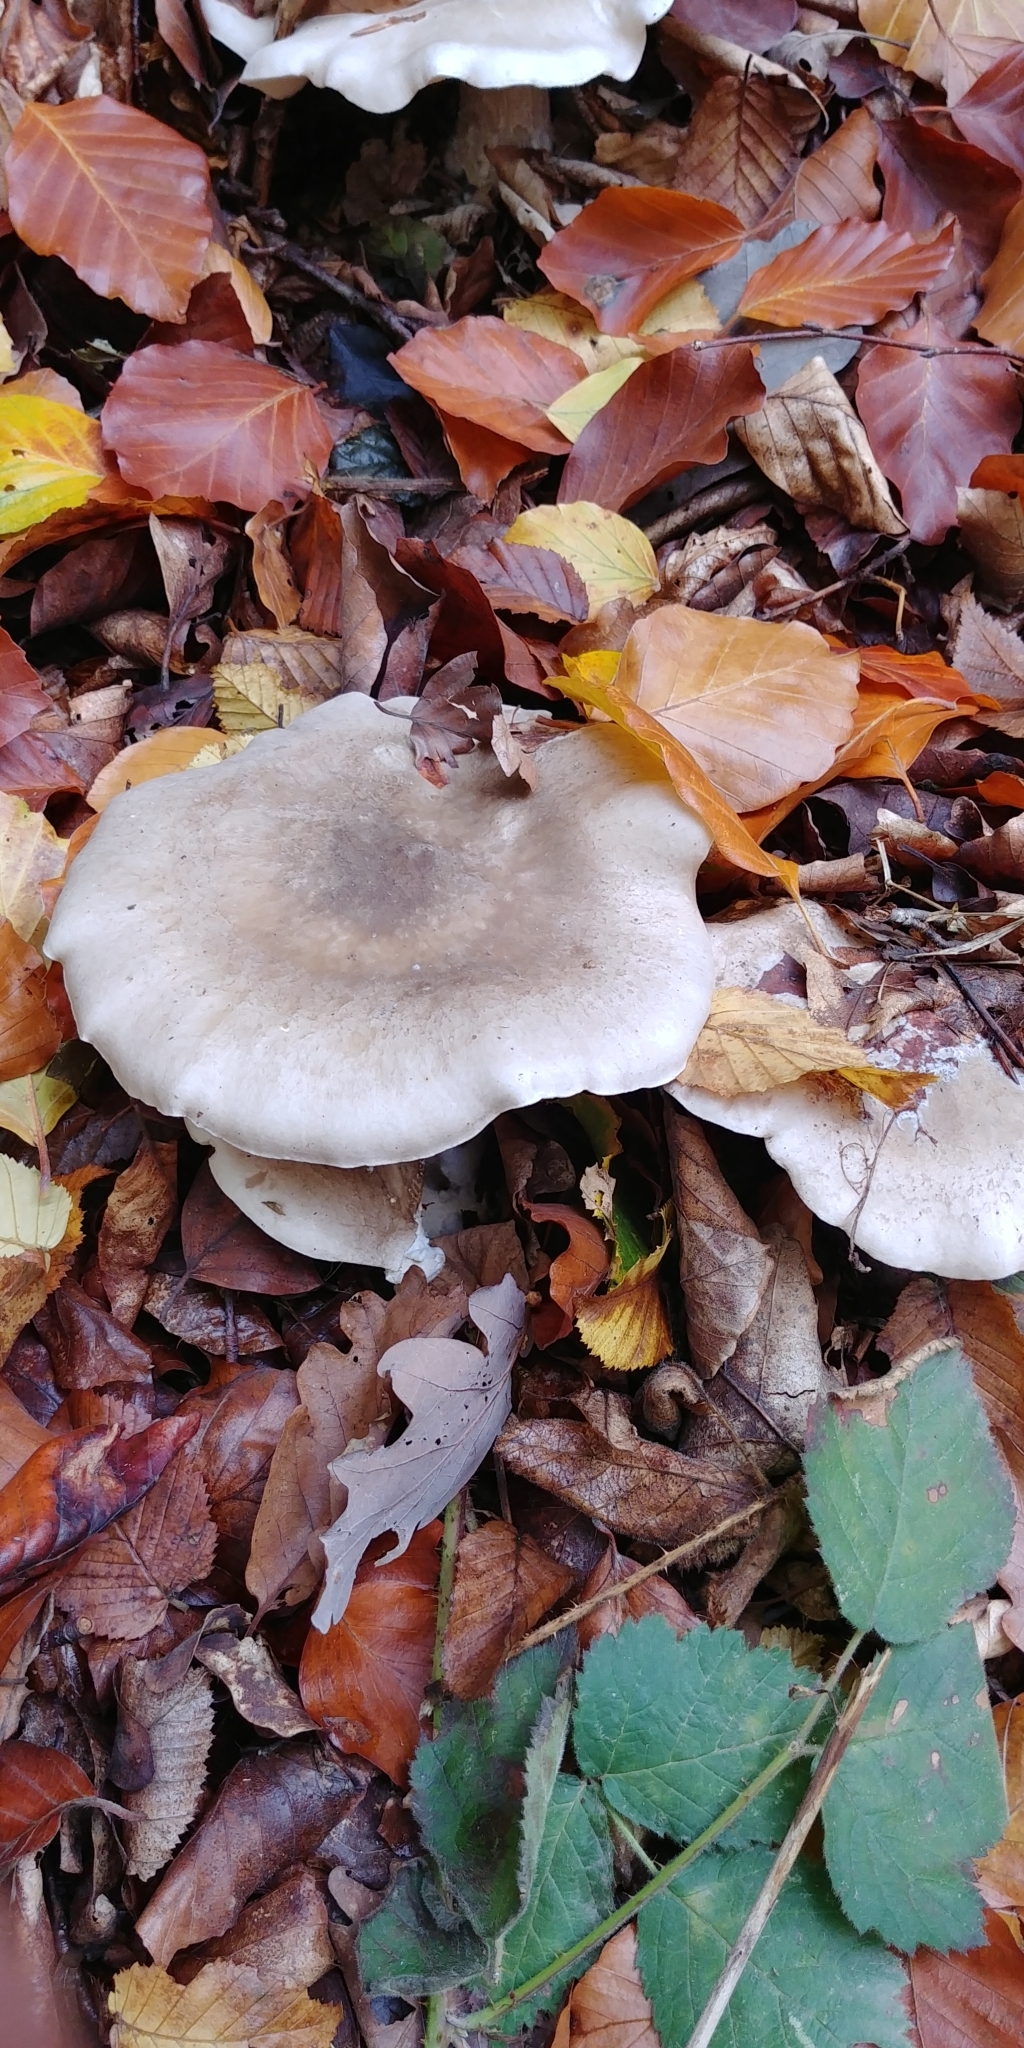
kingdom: Fungi
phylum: Basidiomycota
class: Agaricomycetes
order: Agaricales
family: Tricholomataceae
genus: Clitocybe
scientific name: Clitocybe nebularis
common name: Clouded agaric
